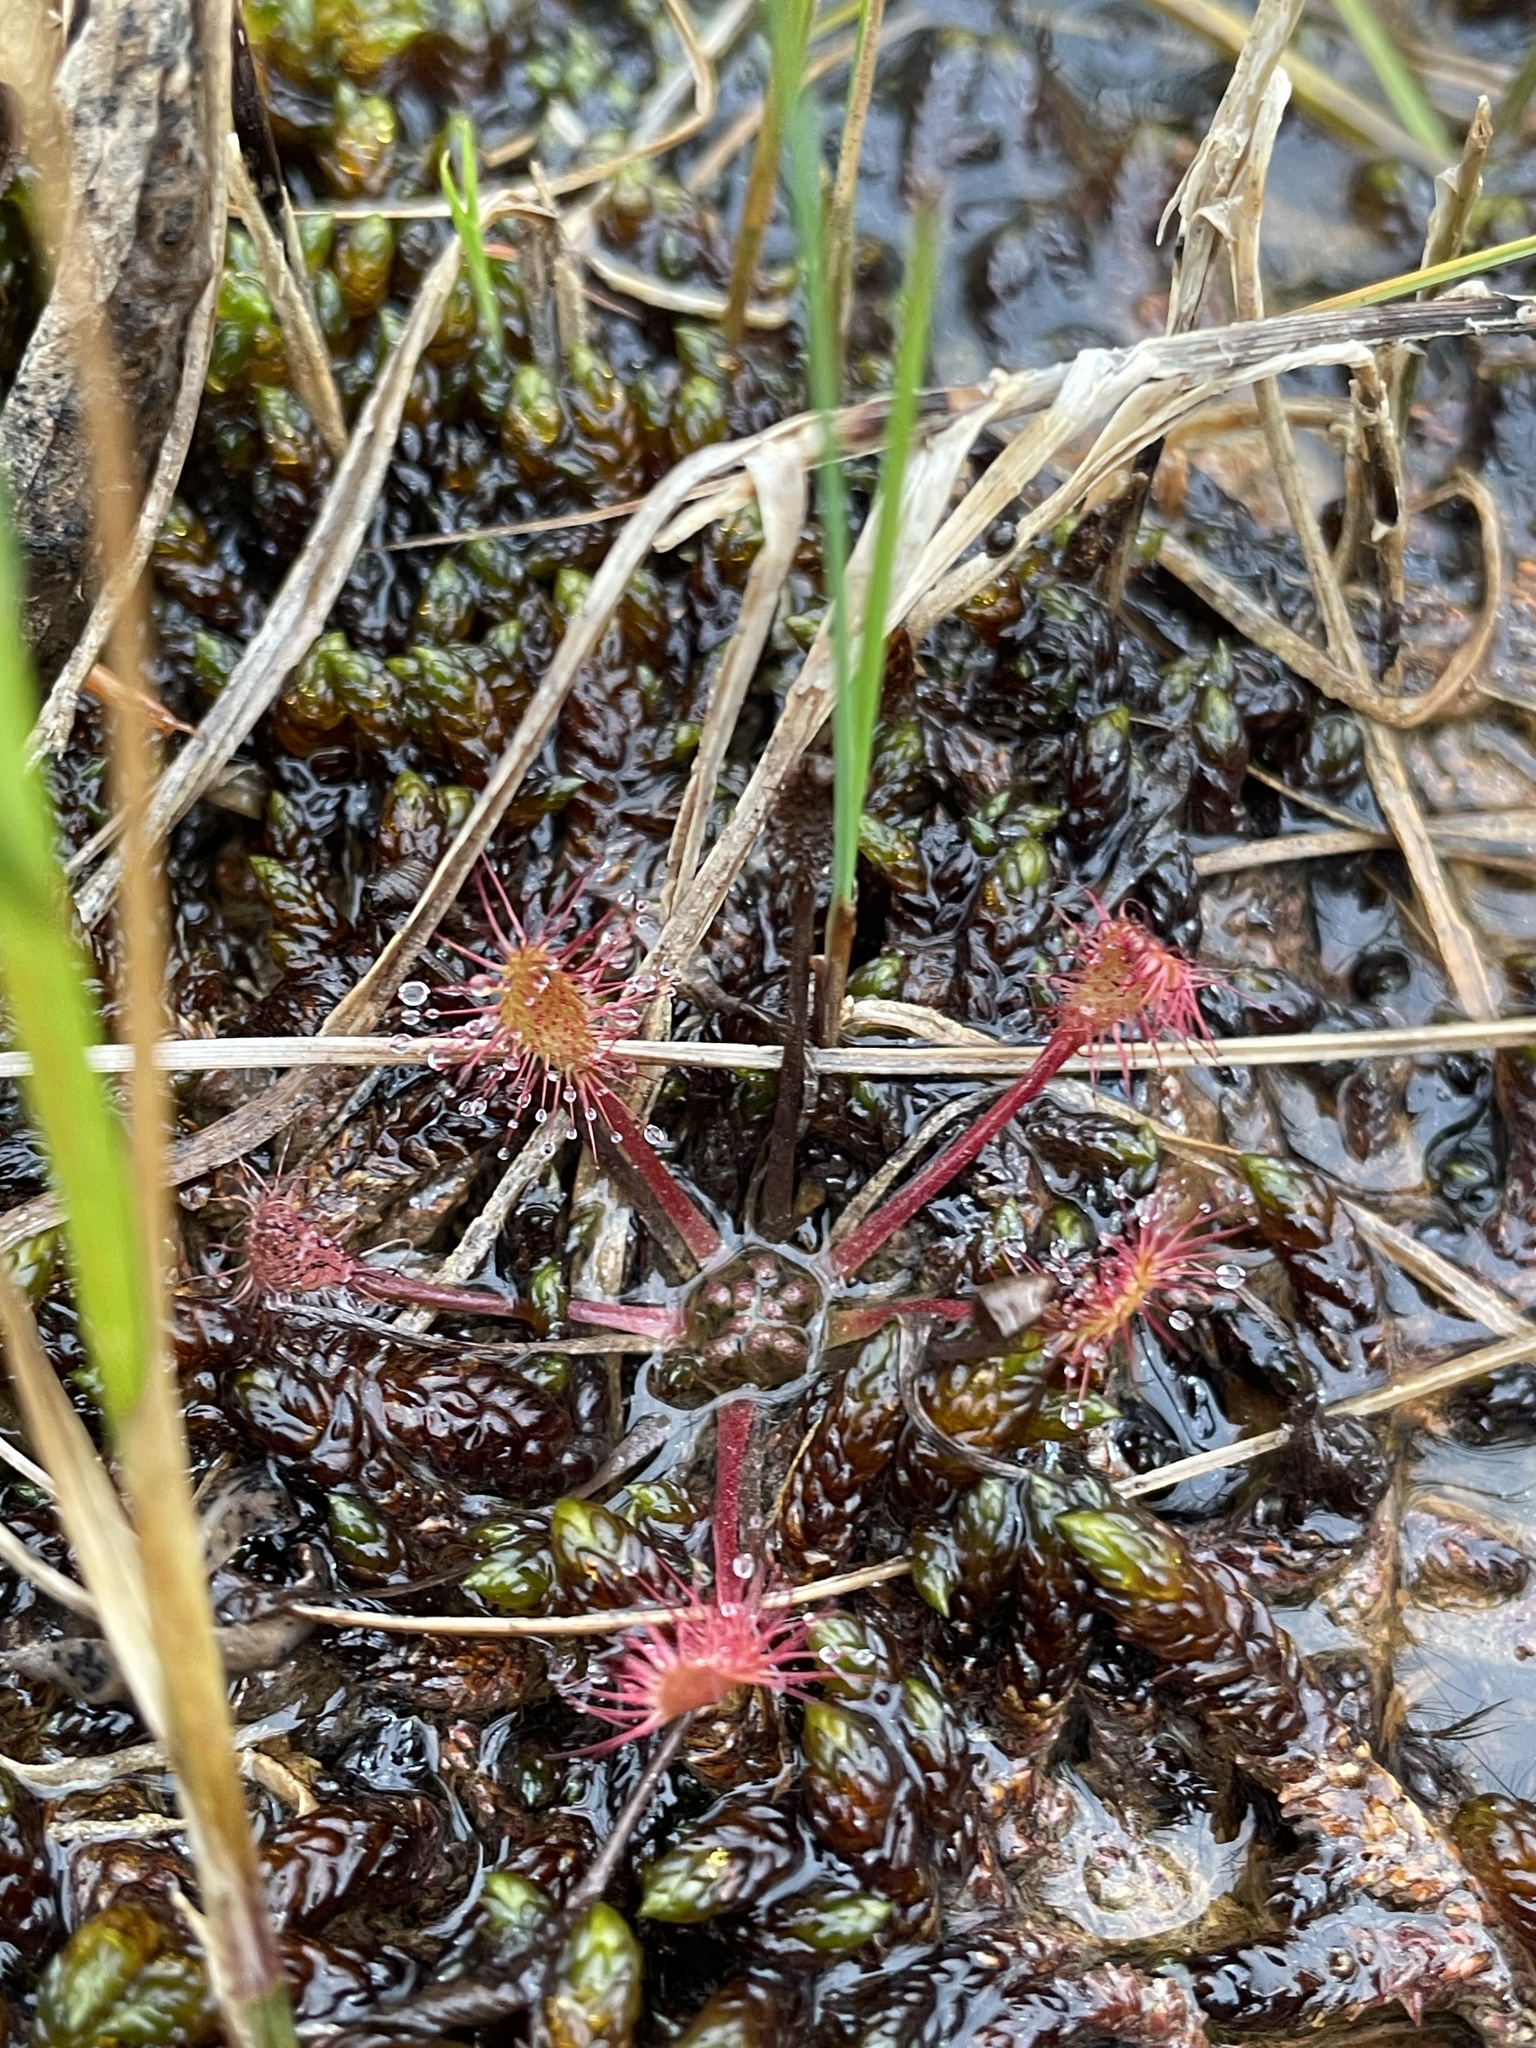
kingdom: Plantae
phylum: Tracheophyta
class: Magnoliopsida
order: Caryophyllales
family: Droseraceae
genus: Drosera
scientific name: Drosera anglica
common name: Great sundew
